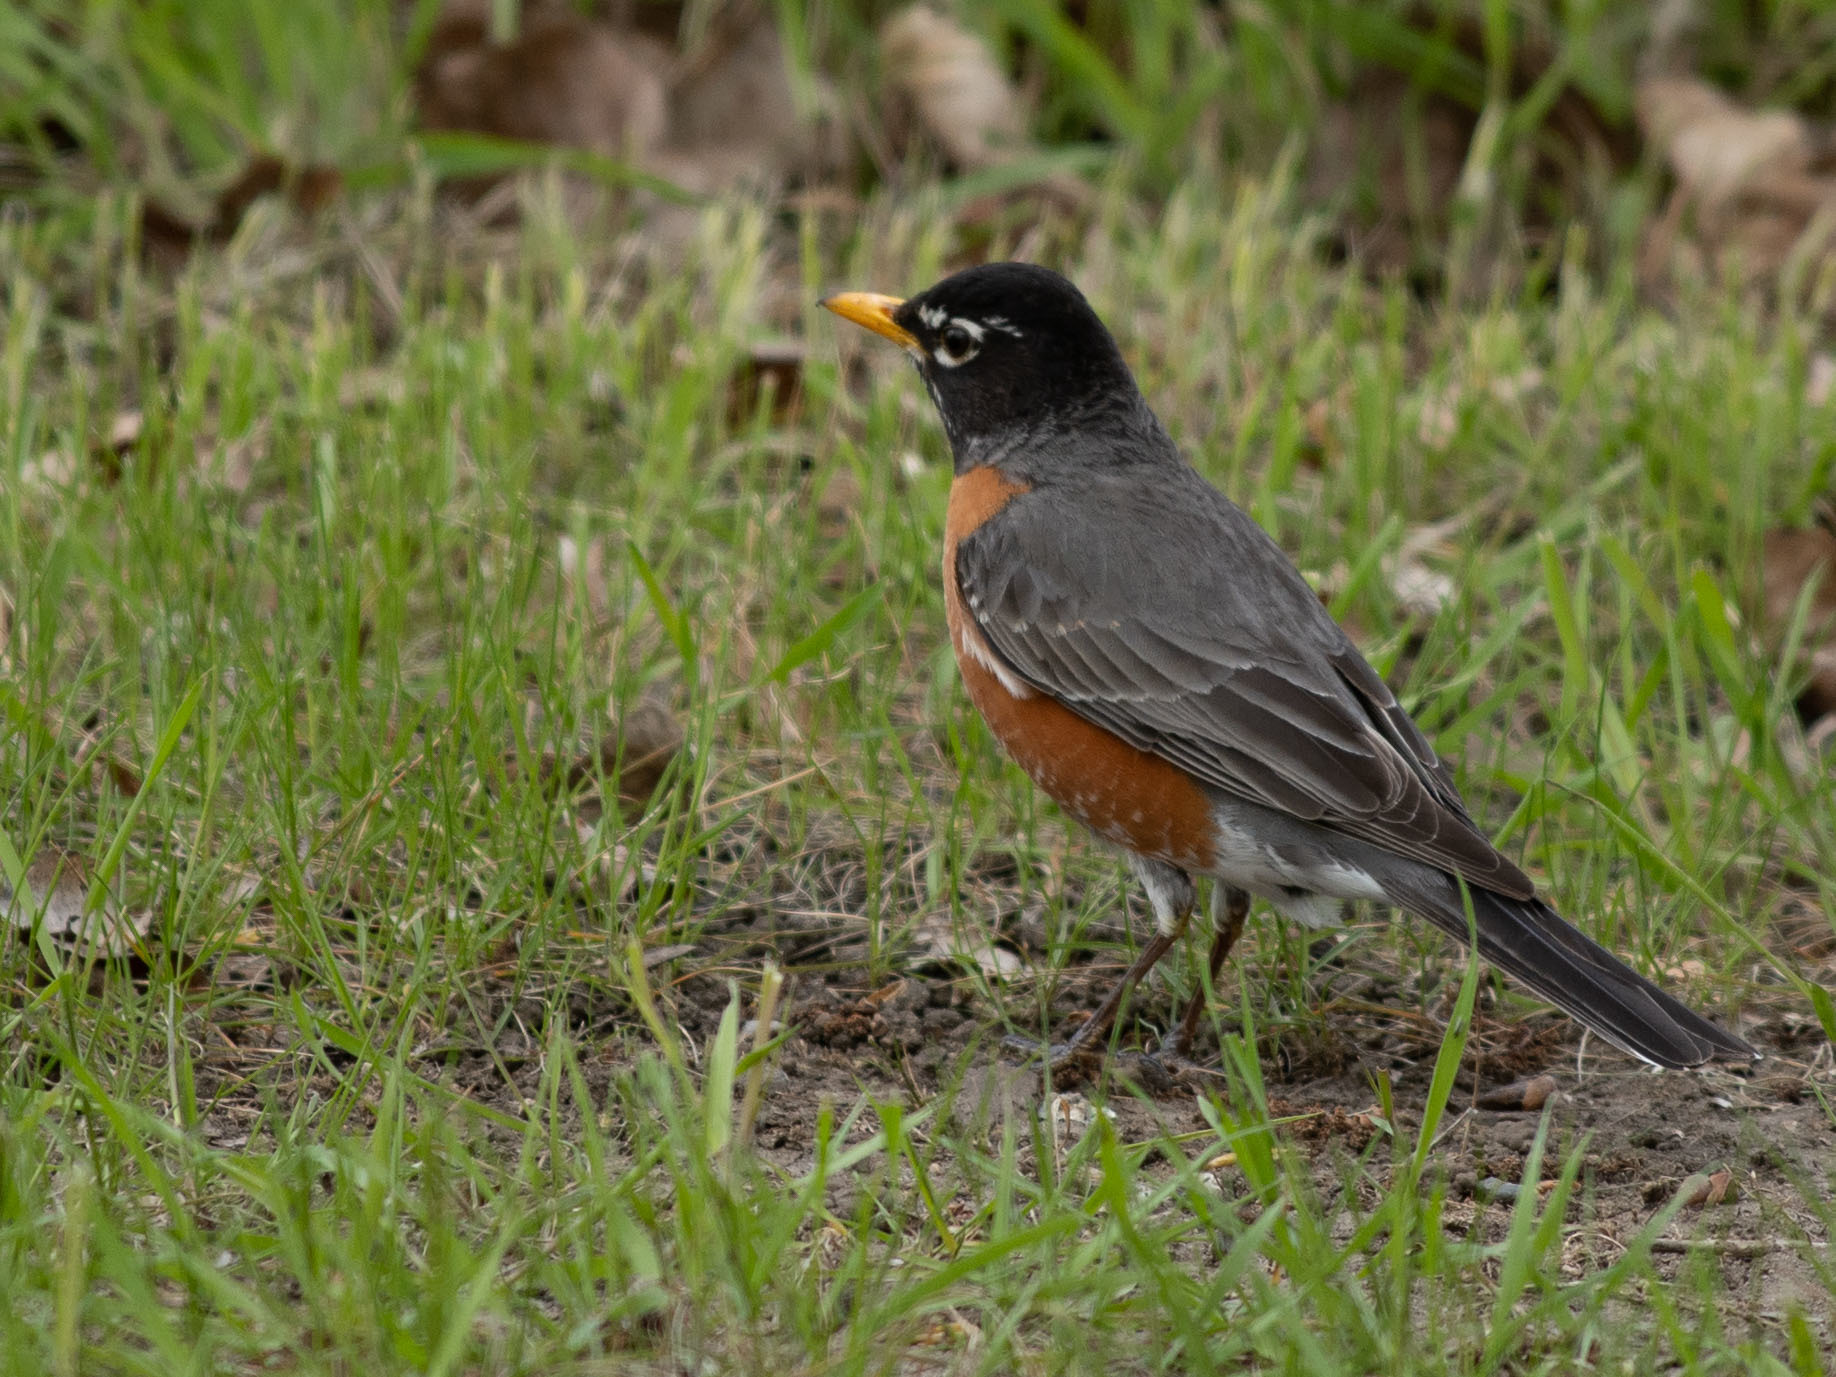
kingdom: Animalia
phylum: Chordata
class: Aves
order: Passeriformes
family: Turdidae
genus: Turdus
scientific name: Turdus migratorius
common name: American robin
